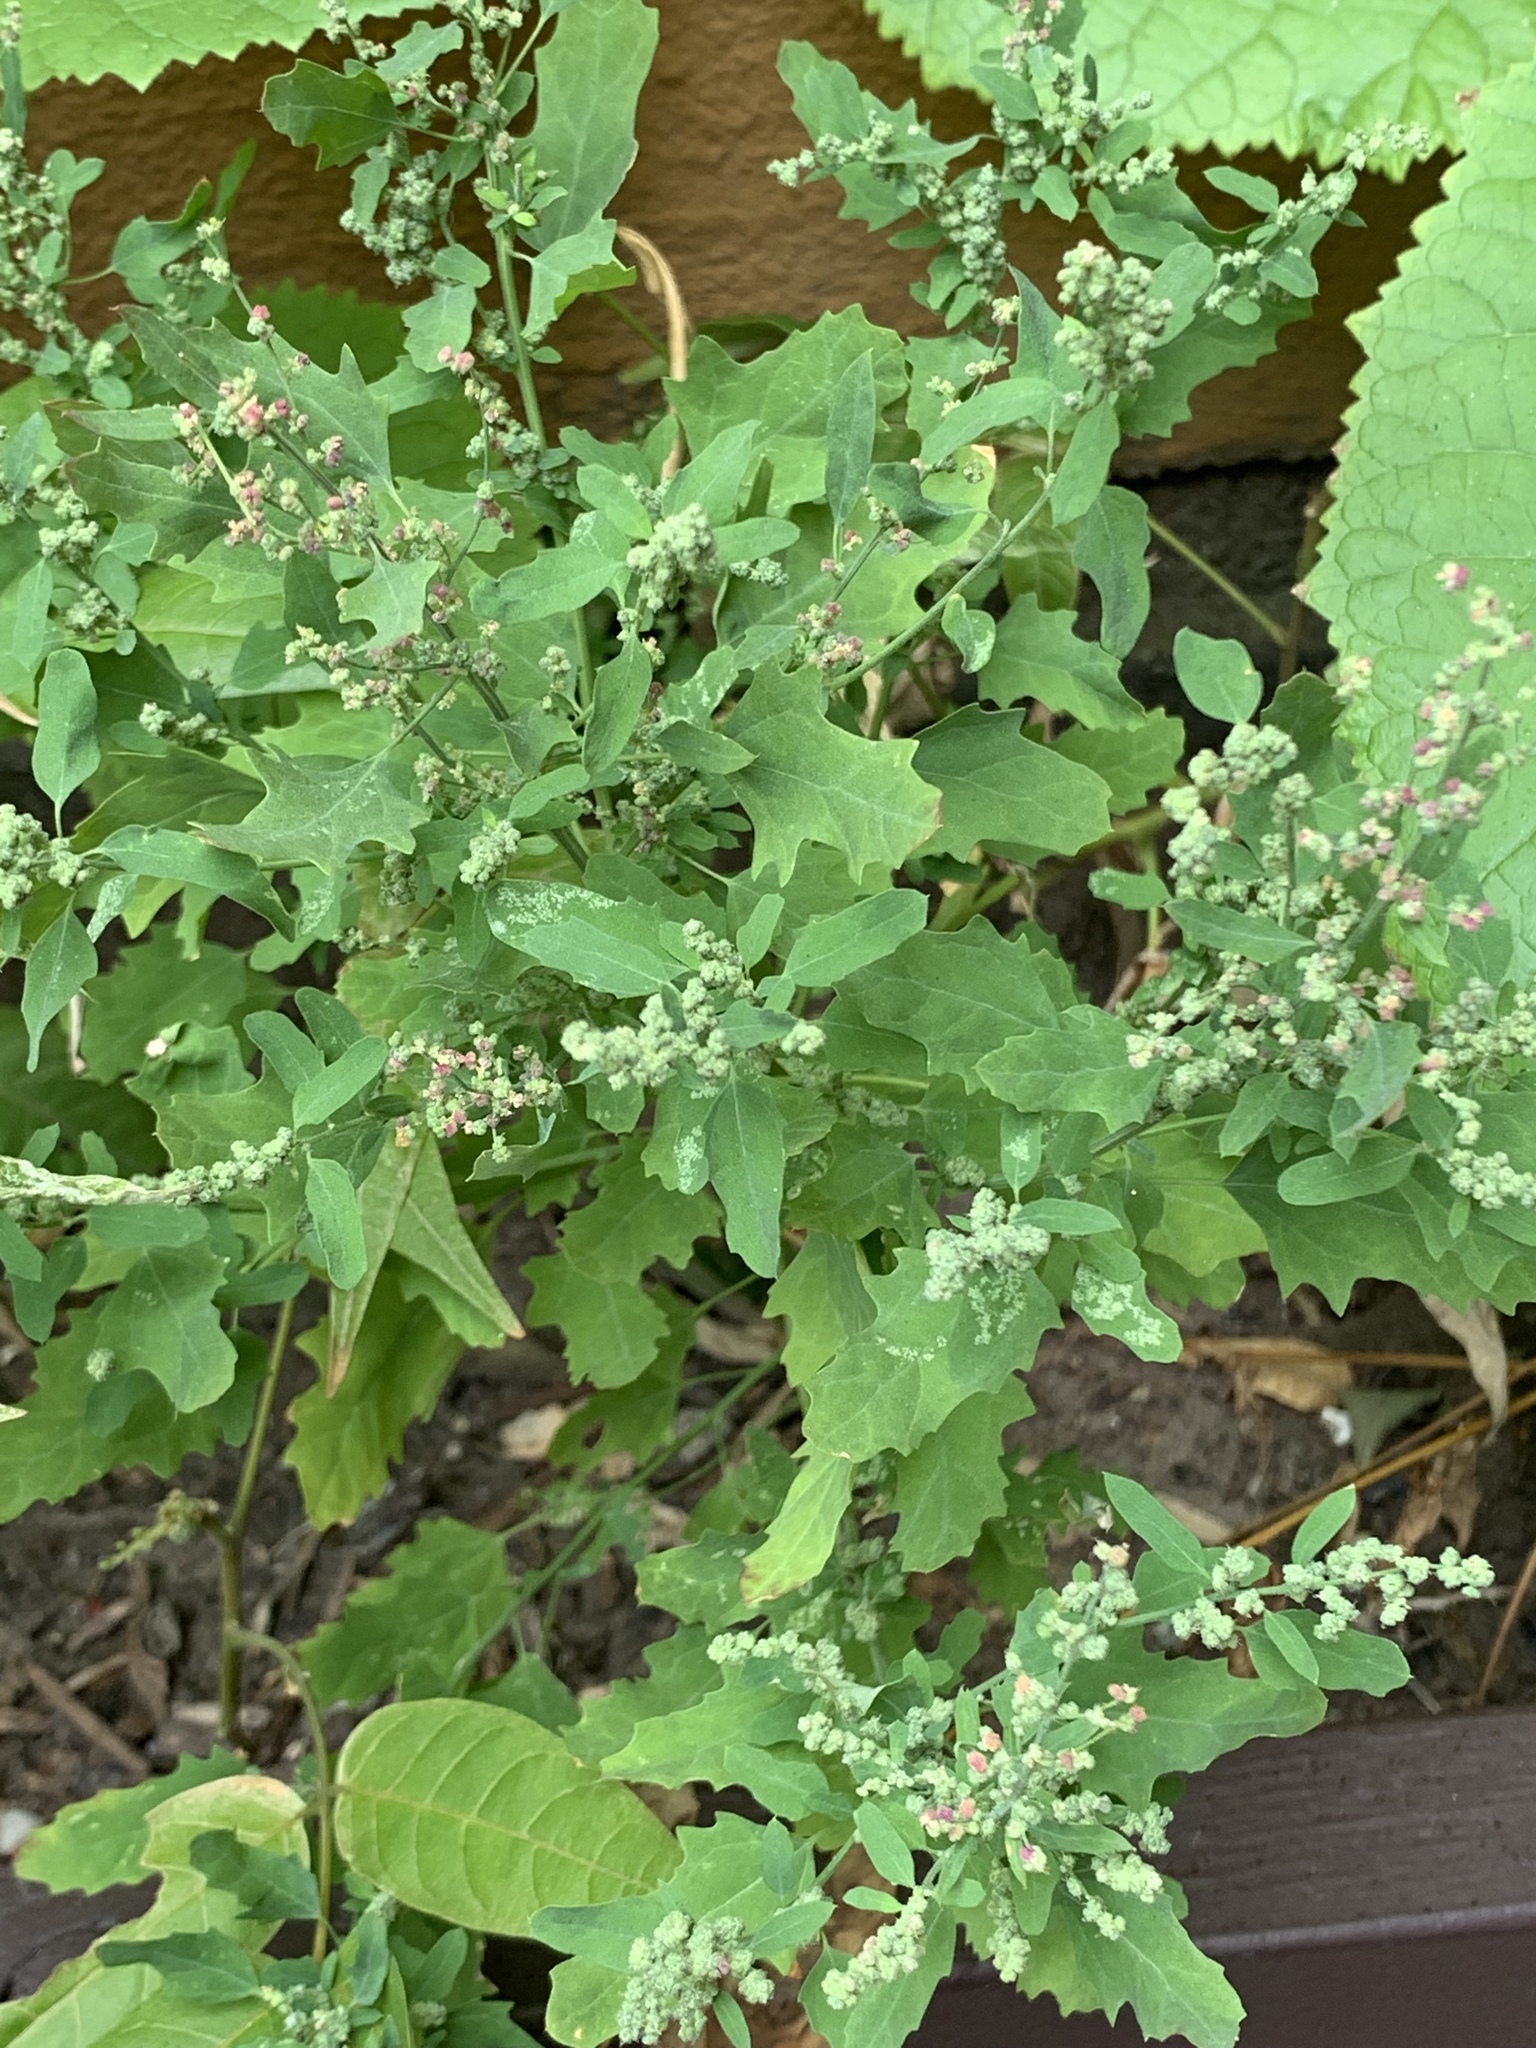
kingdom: Plantae
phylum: Tracheophyta
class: Magnoliopsida
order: Caryophyllales
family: Amaranthaceae
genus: Chenopodium
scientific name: Chenopodium album
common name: Fat-hen
